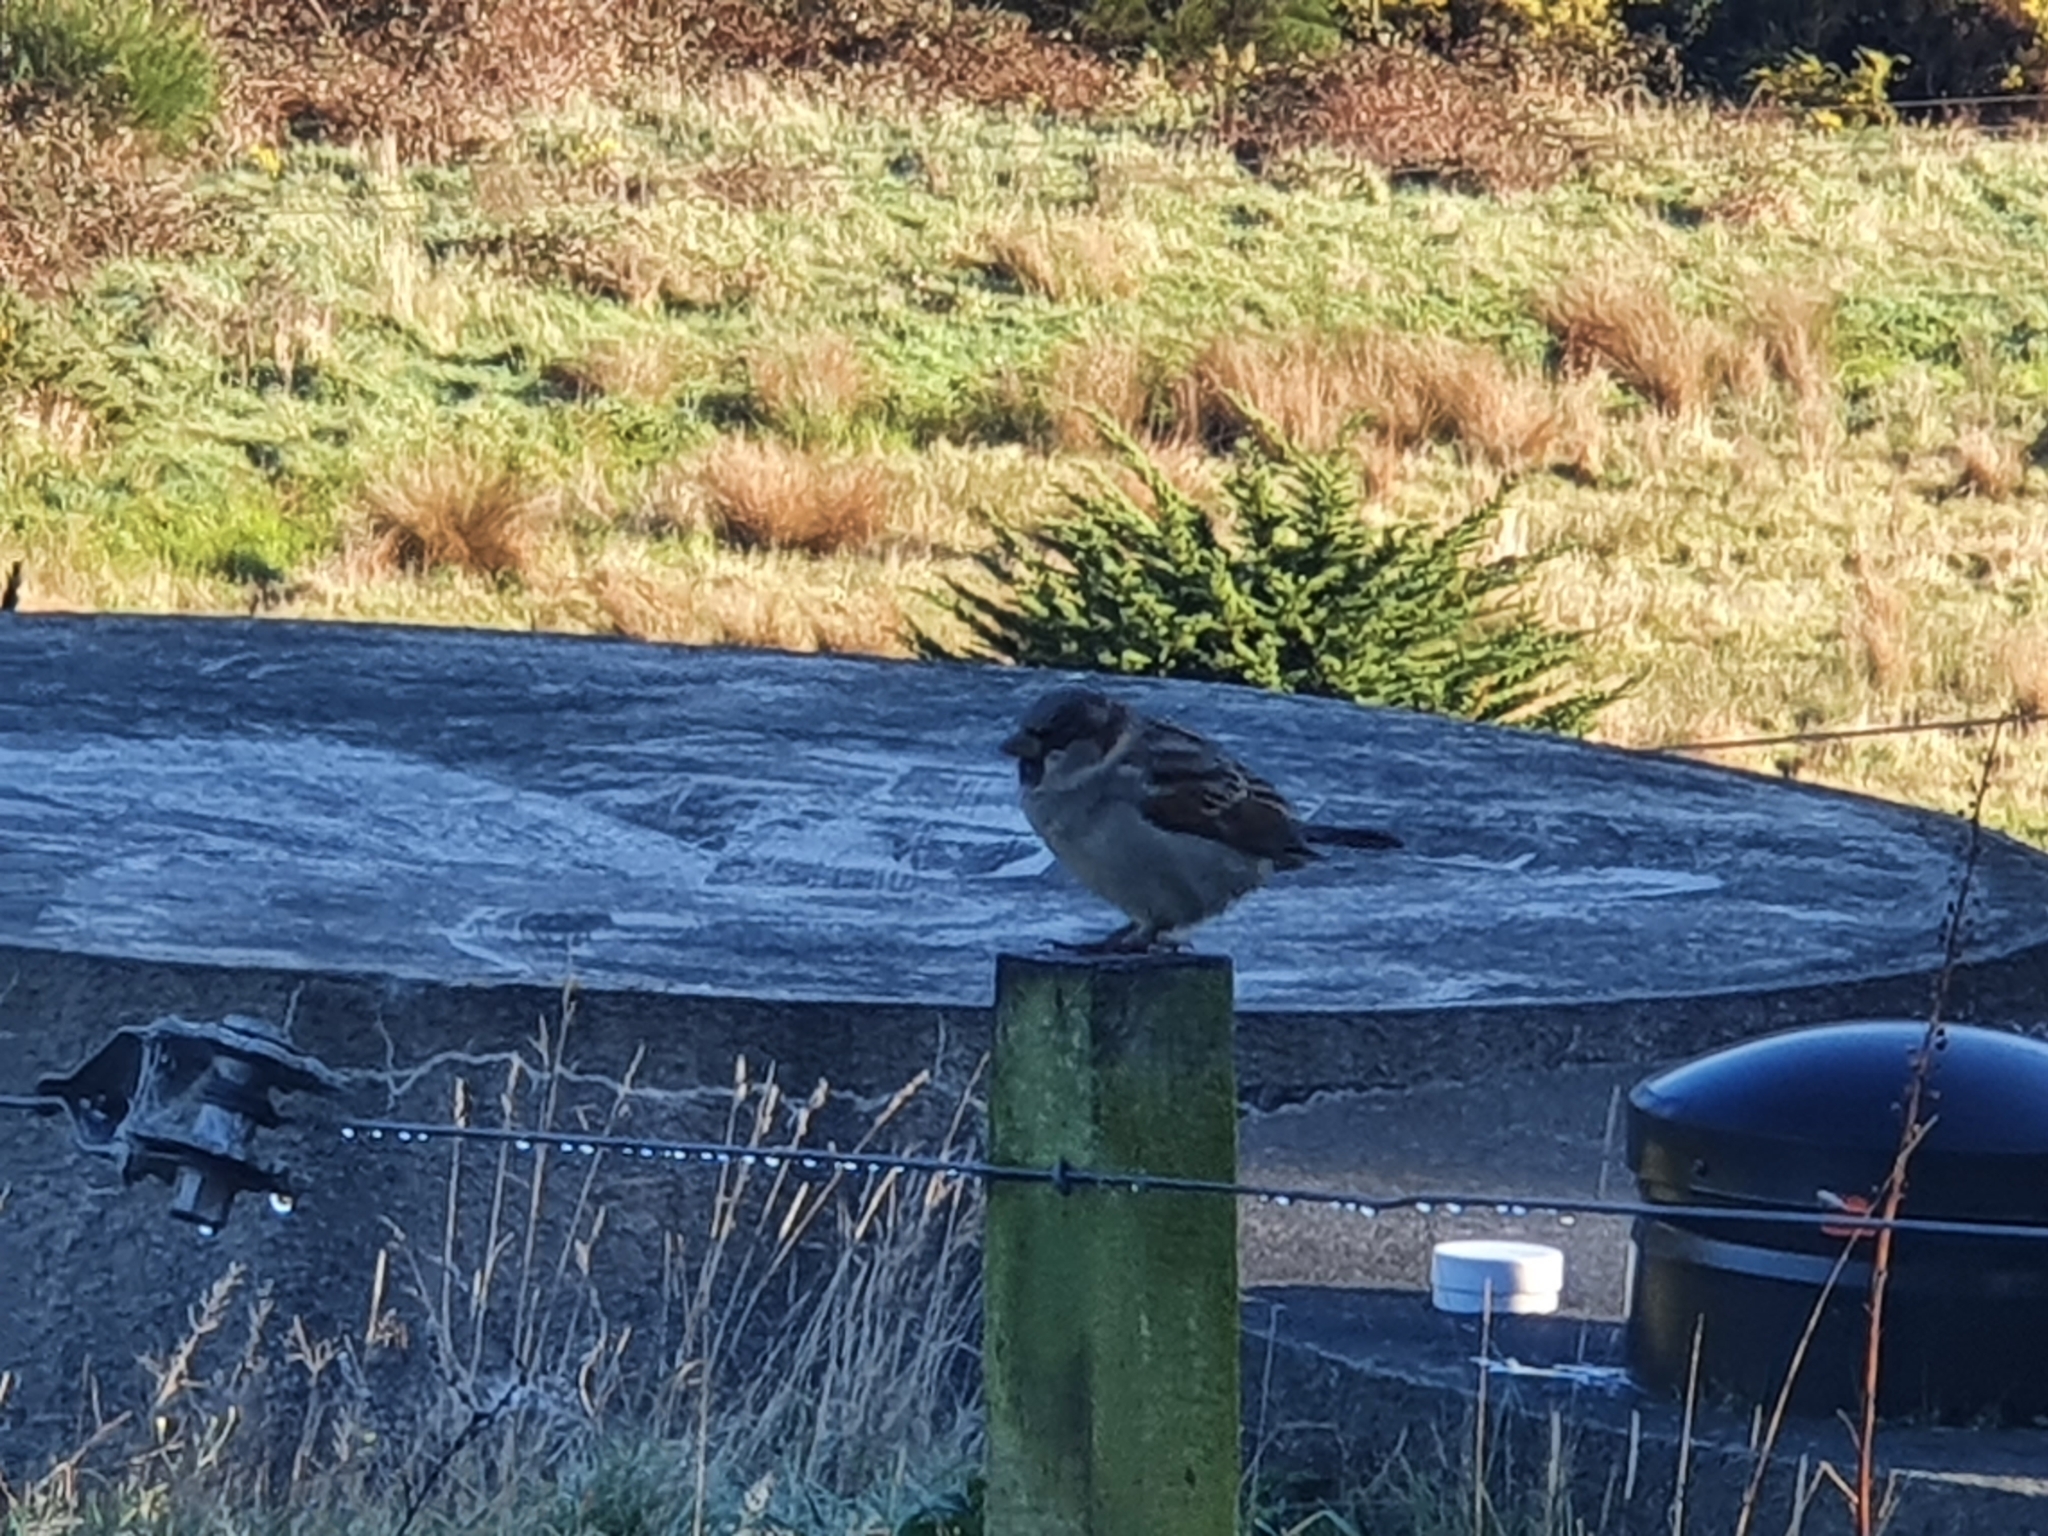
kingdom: Animalia
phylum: Chordata
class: Aves
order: Passeriformes
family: Passeridae
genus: Passer
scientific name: Passer domesticus
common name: House sparrow
